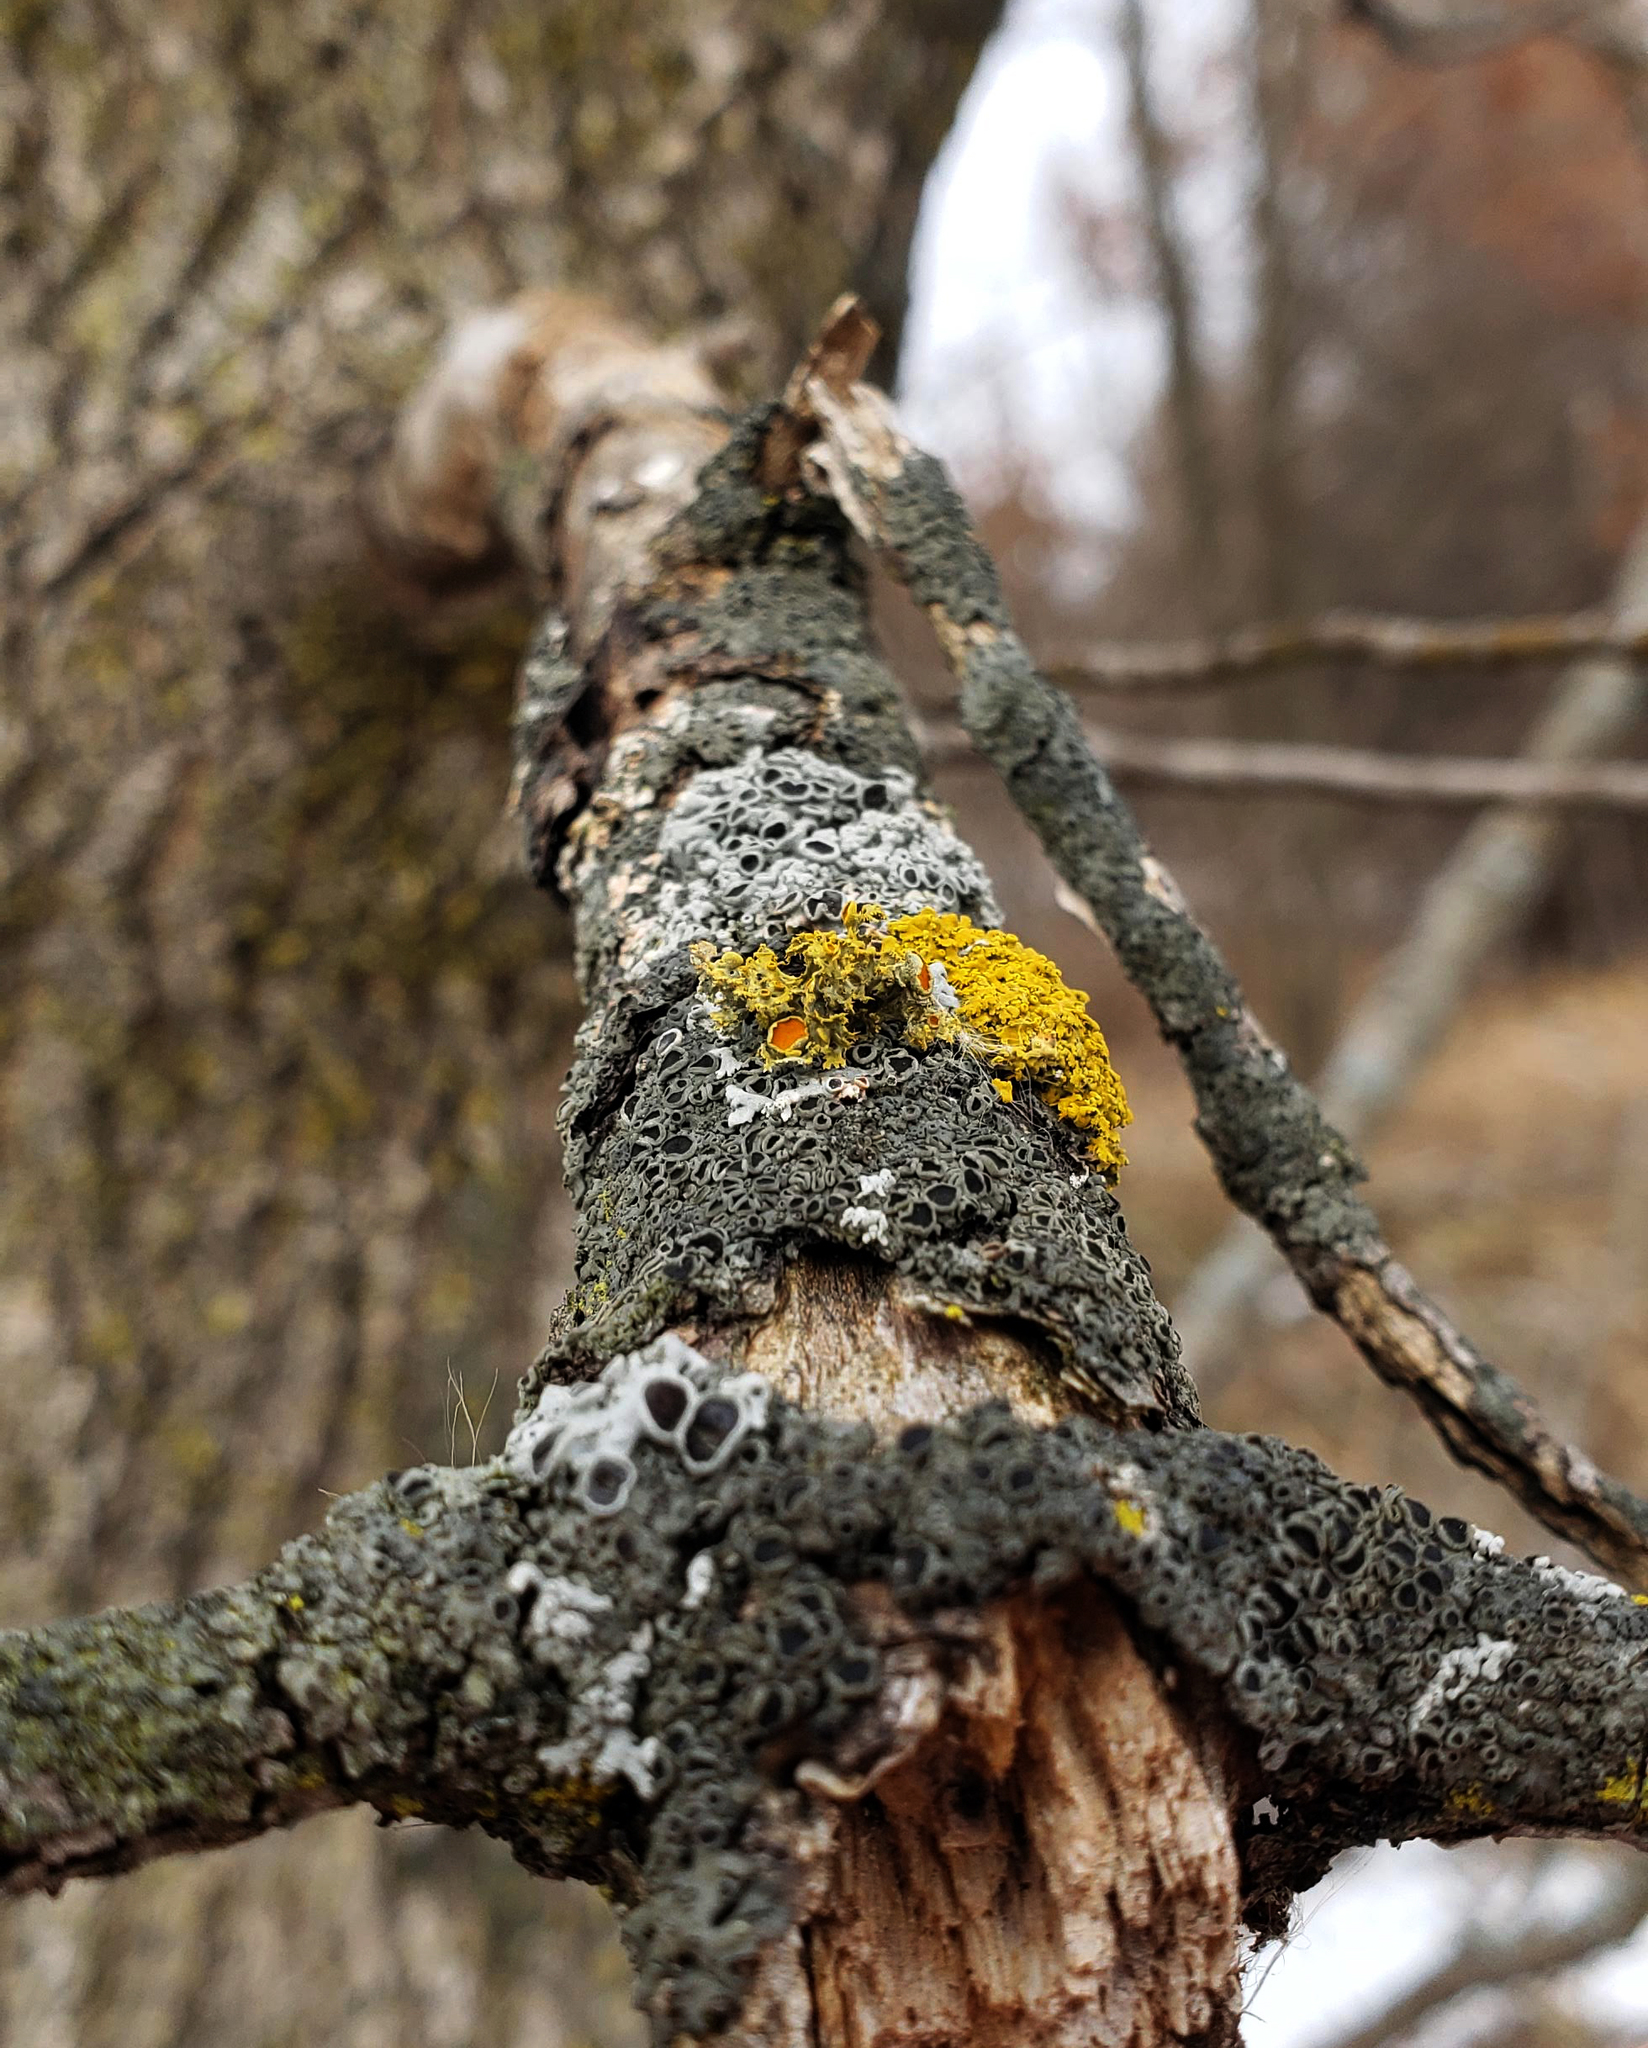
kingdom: Fungi
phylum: Ascomycota
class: Lecanoromycetes
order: Teloschistales
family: Teloschistaceae
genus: Niorma
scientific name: Niorma chrysophthalma
